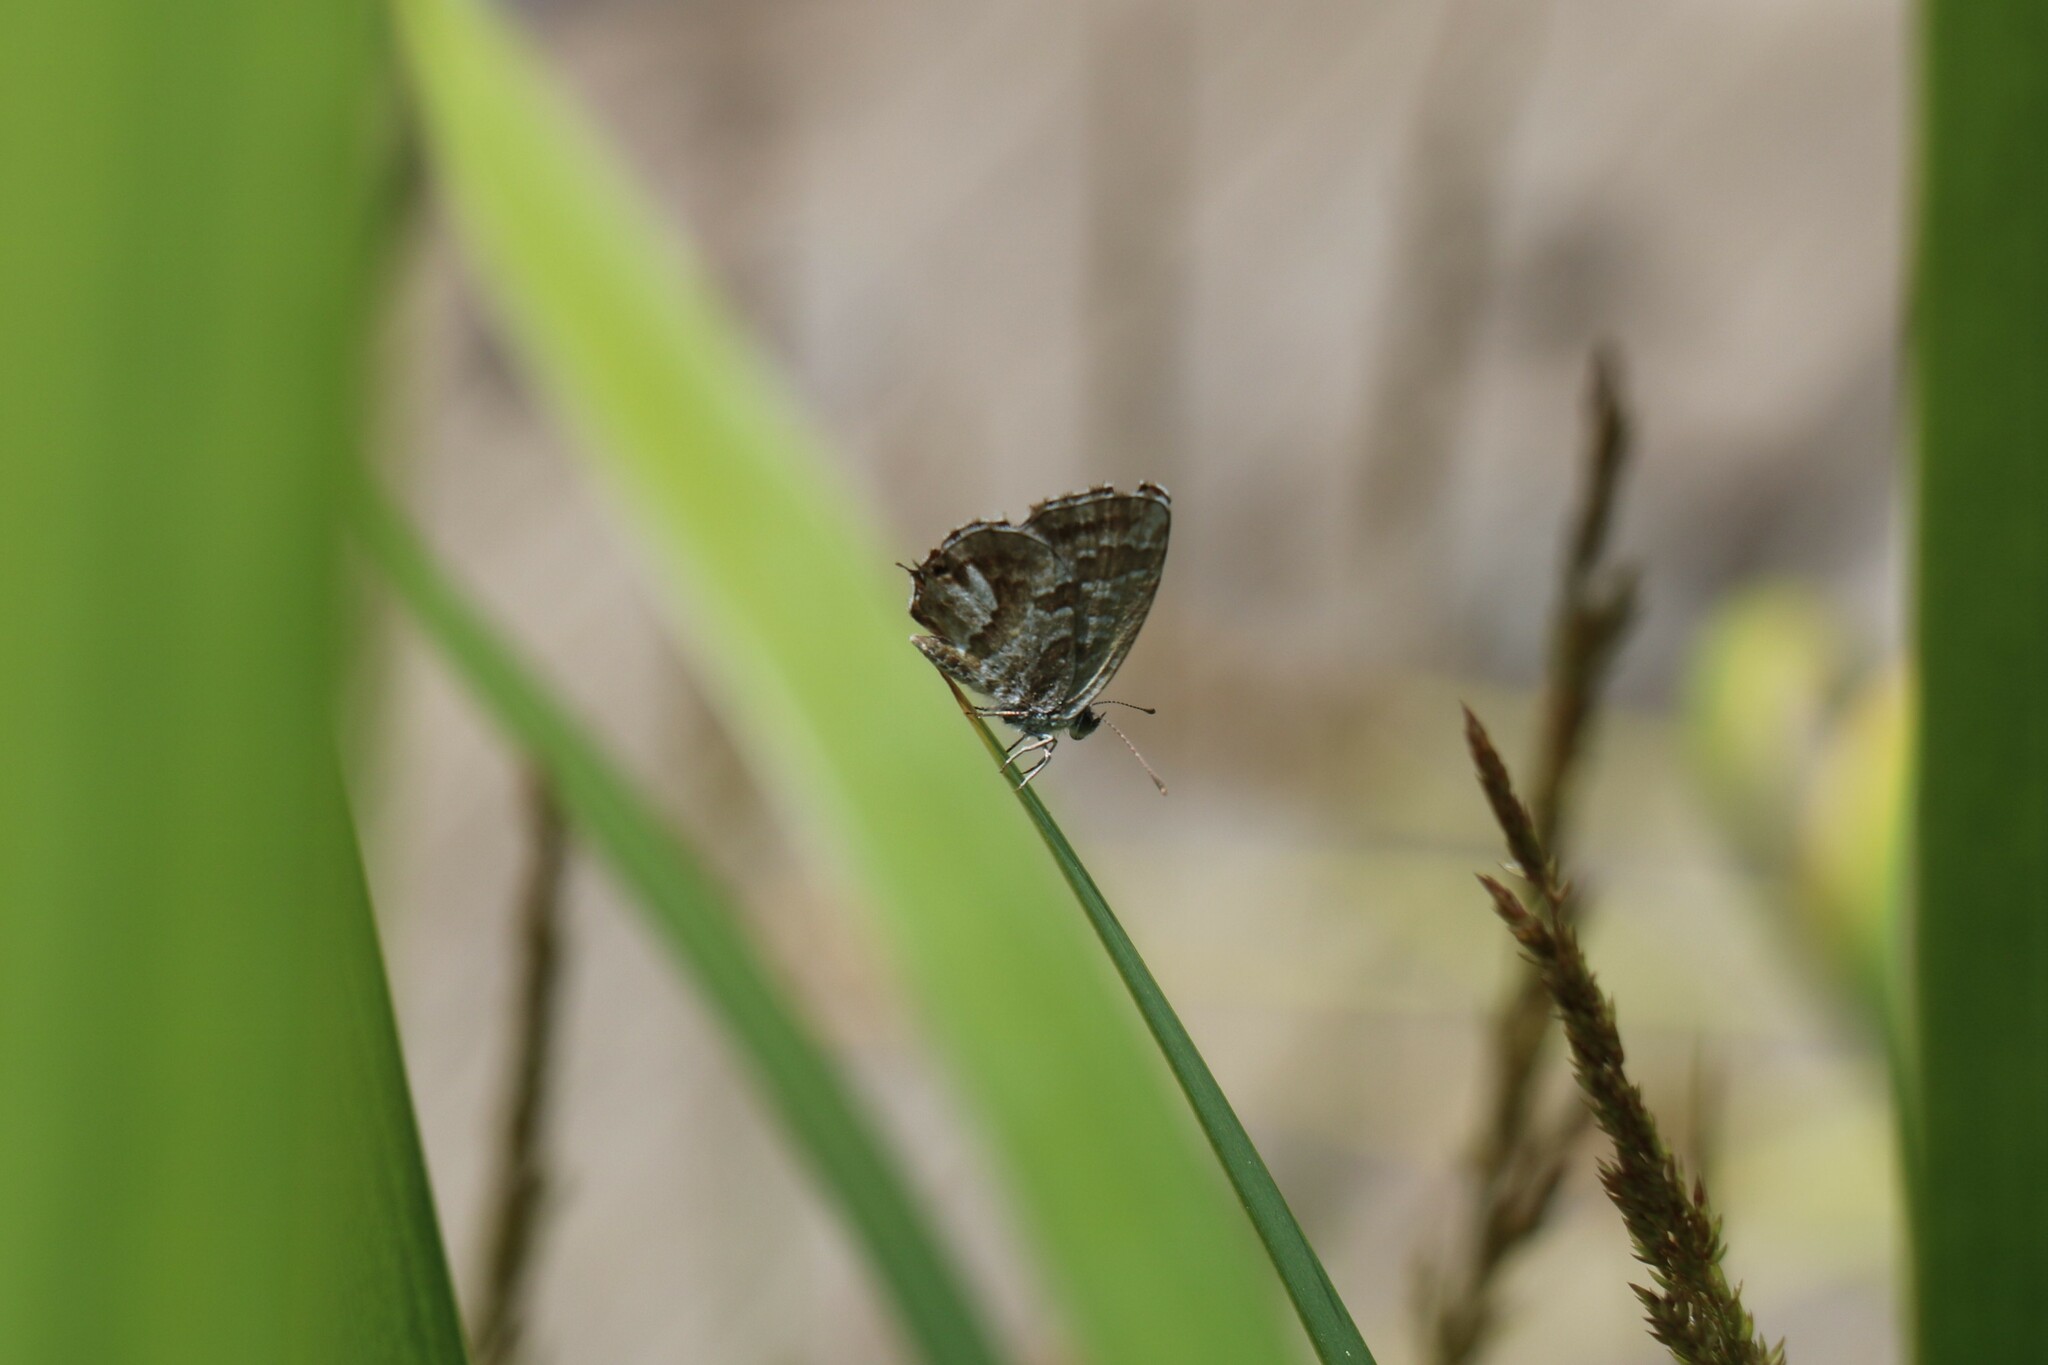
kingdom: Animalia
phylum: Arthropoda
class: Insecta
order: Lepidoptera
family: Lycaenidae
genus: Cacyreus
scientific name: Cacyreus marshalli
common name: Geranium bronze
